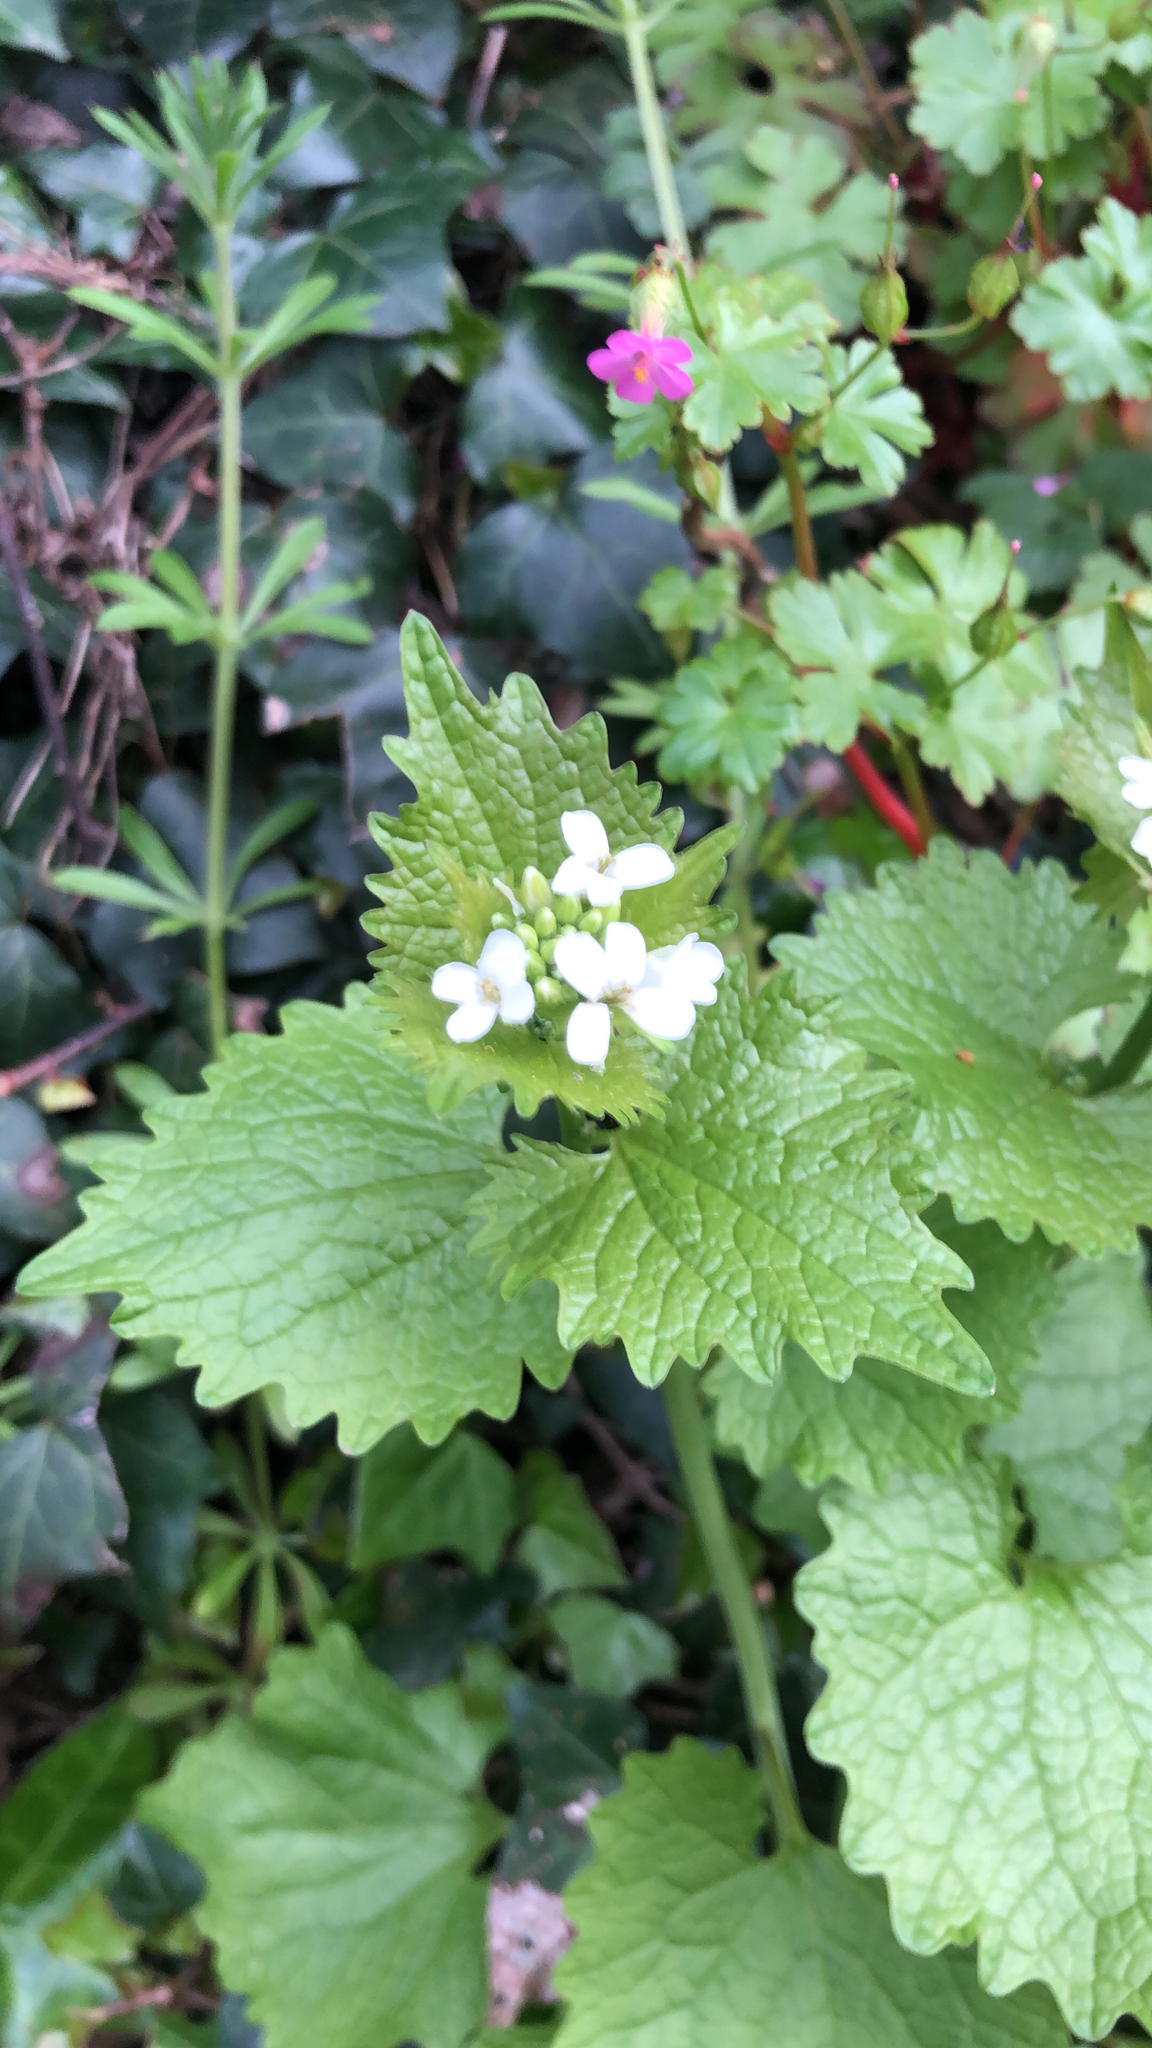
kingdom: Plantae
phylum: Tracheophyta
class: Magnoliopsida
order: Brassicales
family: Brassicaceae
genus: Alliaria
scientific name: Alliaria petiolata
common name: Garlic mustard
